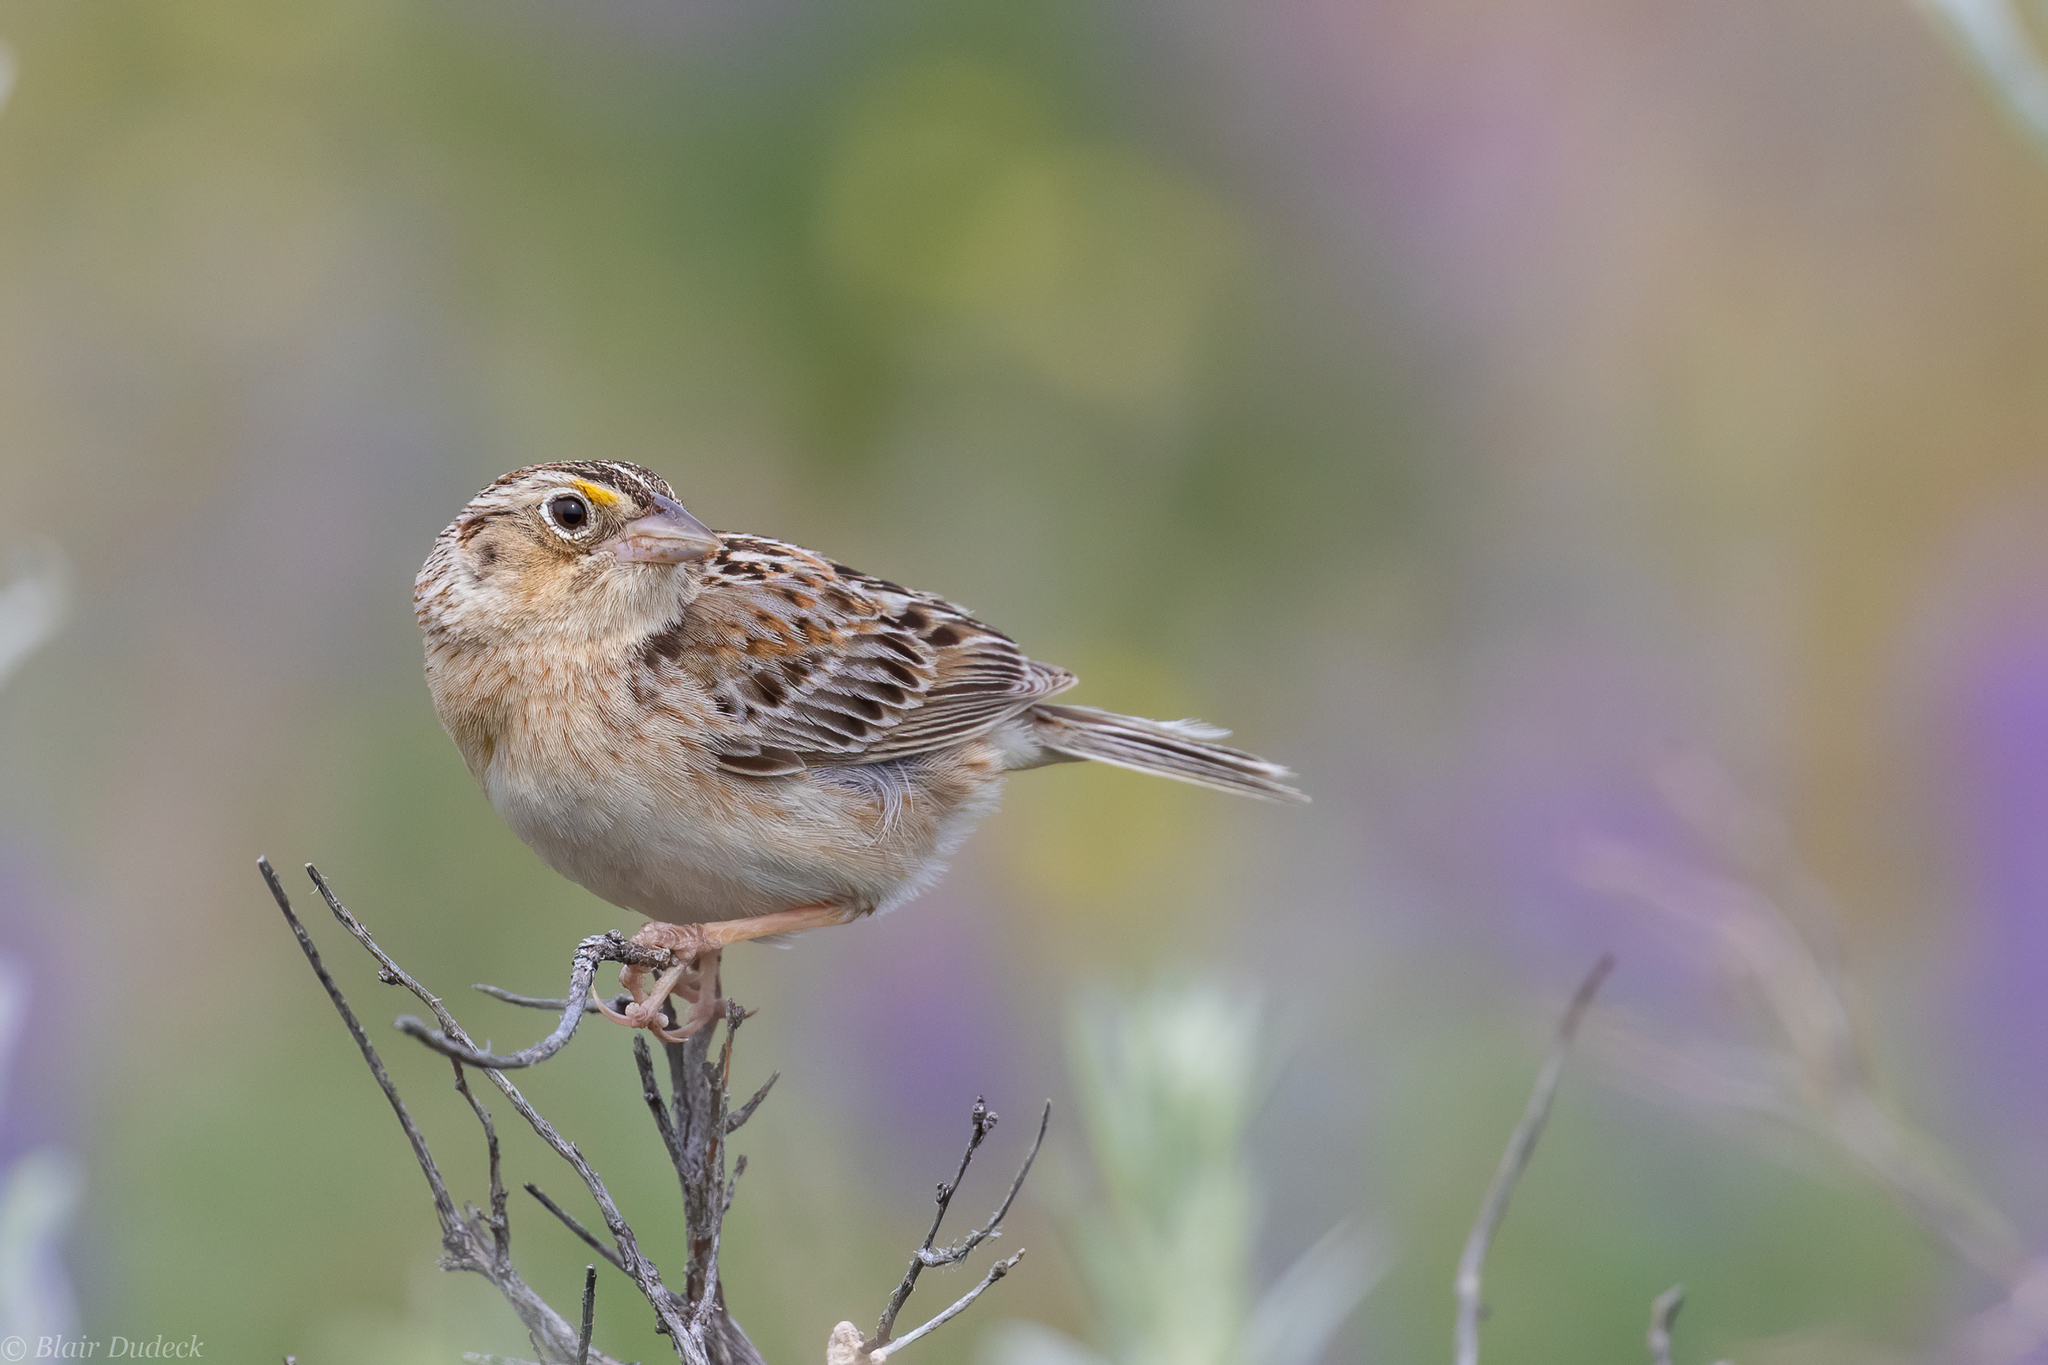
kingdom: Animalia
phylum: Chordata
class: Aves
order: Passeriformes
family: Passerellidae
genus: Ammodramus
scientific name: Ammodramus savannarum
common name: Grasshopper sparrow
